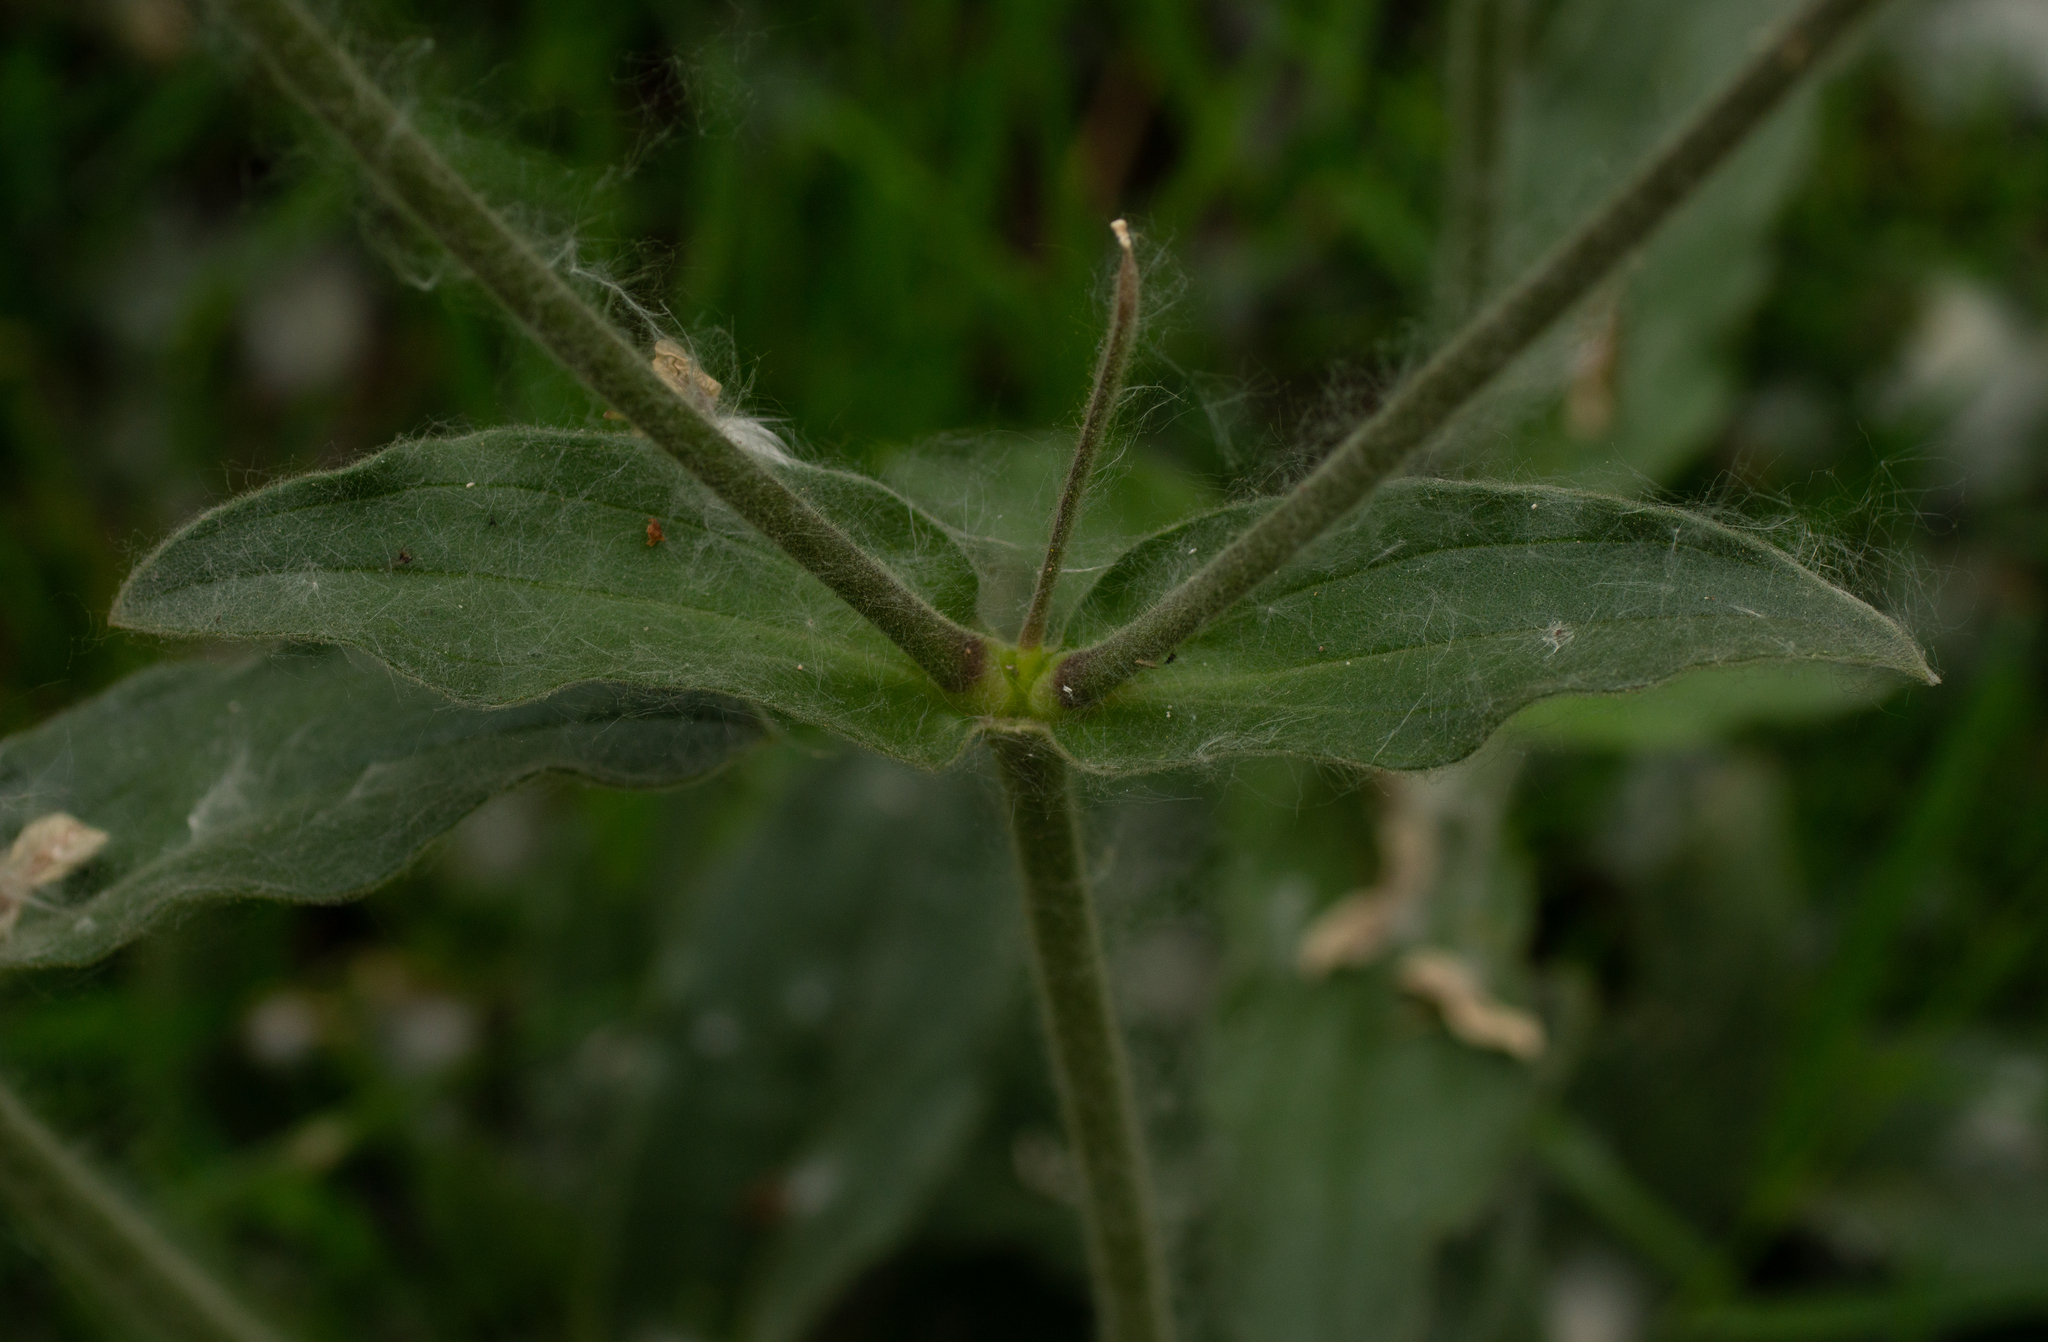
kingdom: Plantae
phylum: Tracheophyta
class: Magnoliopsida
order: Caryophyllales
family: Caryophyllaceae
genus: Silene
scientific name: Silene latifolia
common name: White campion
